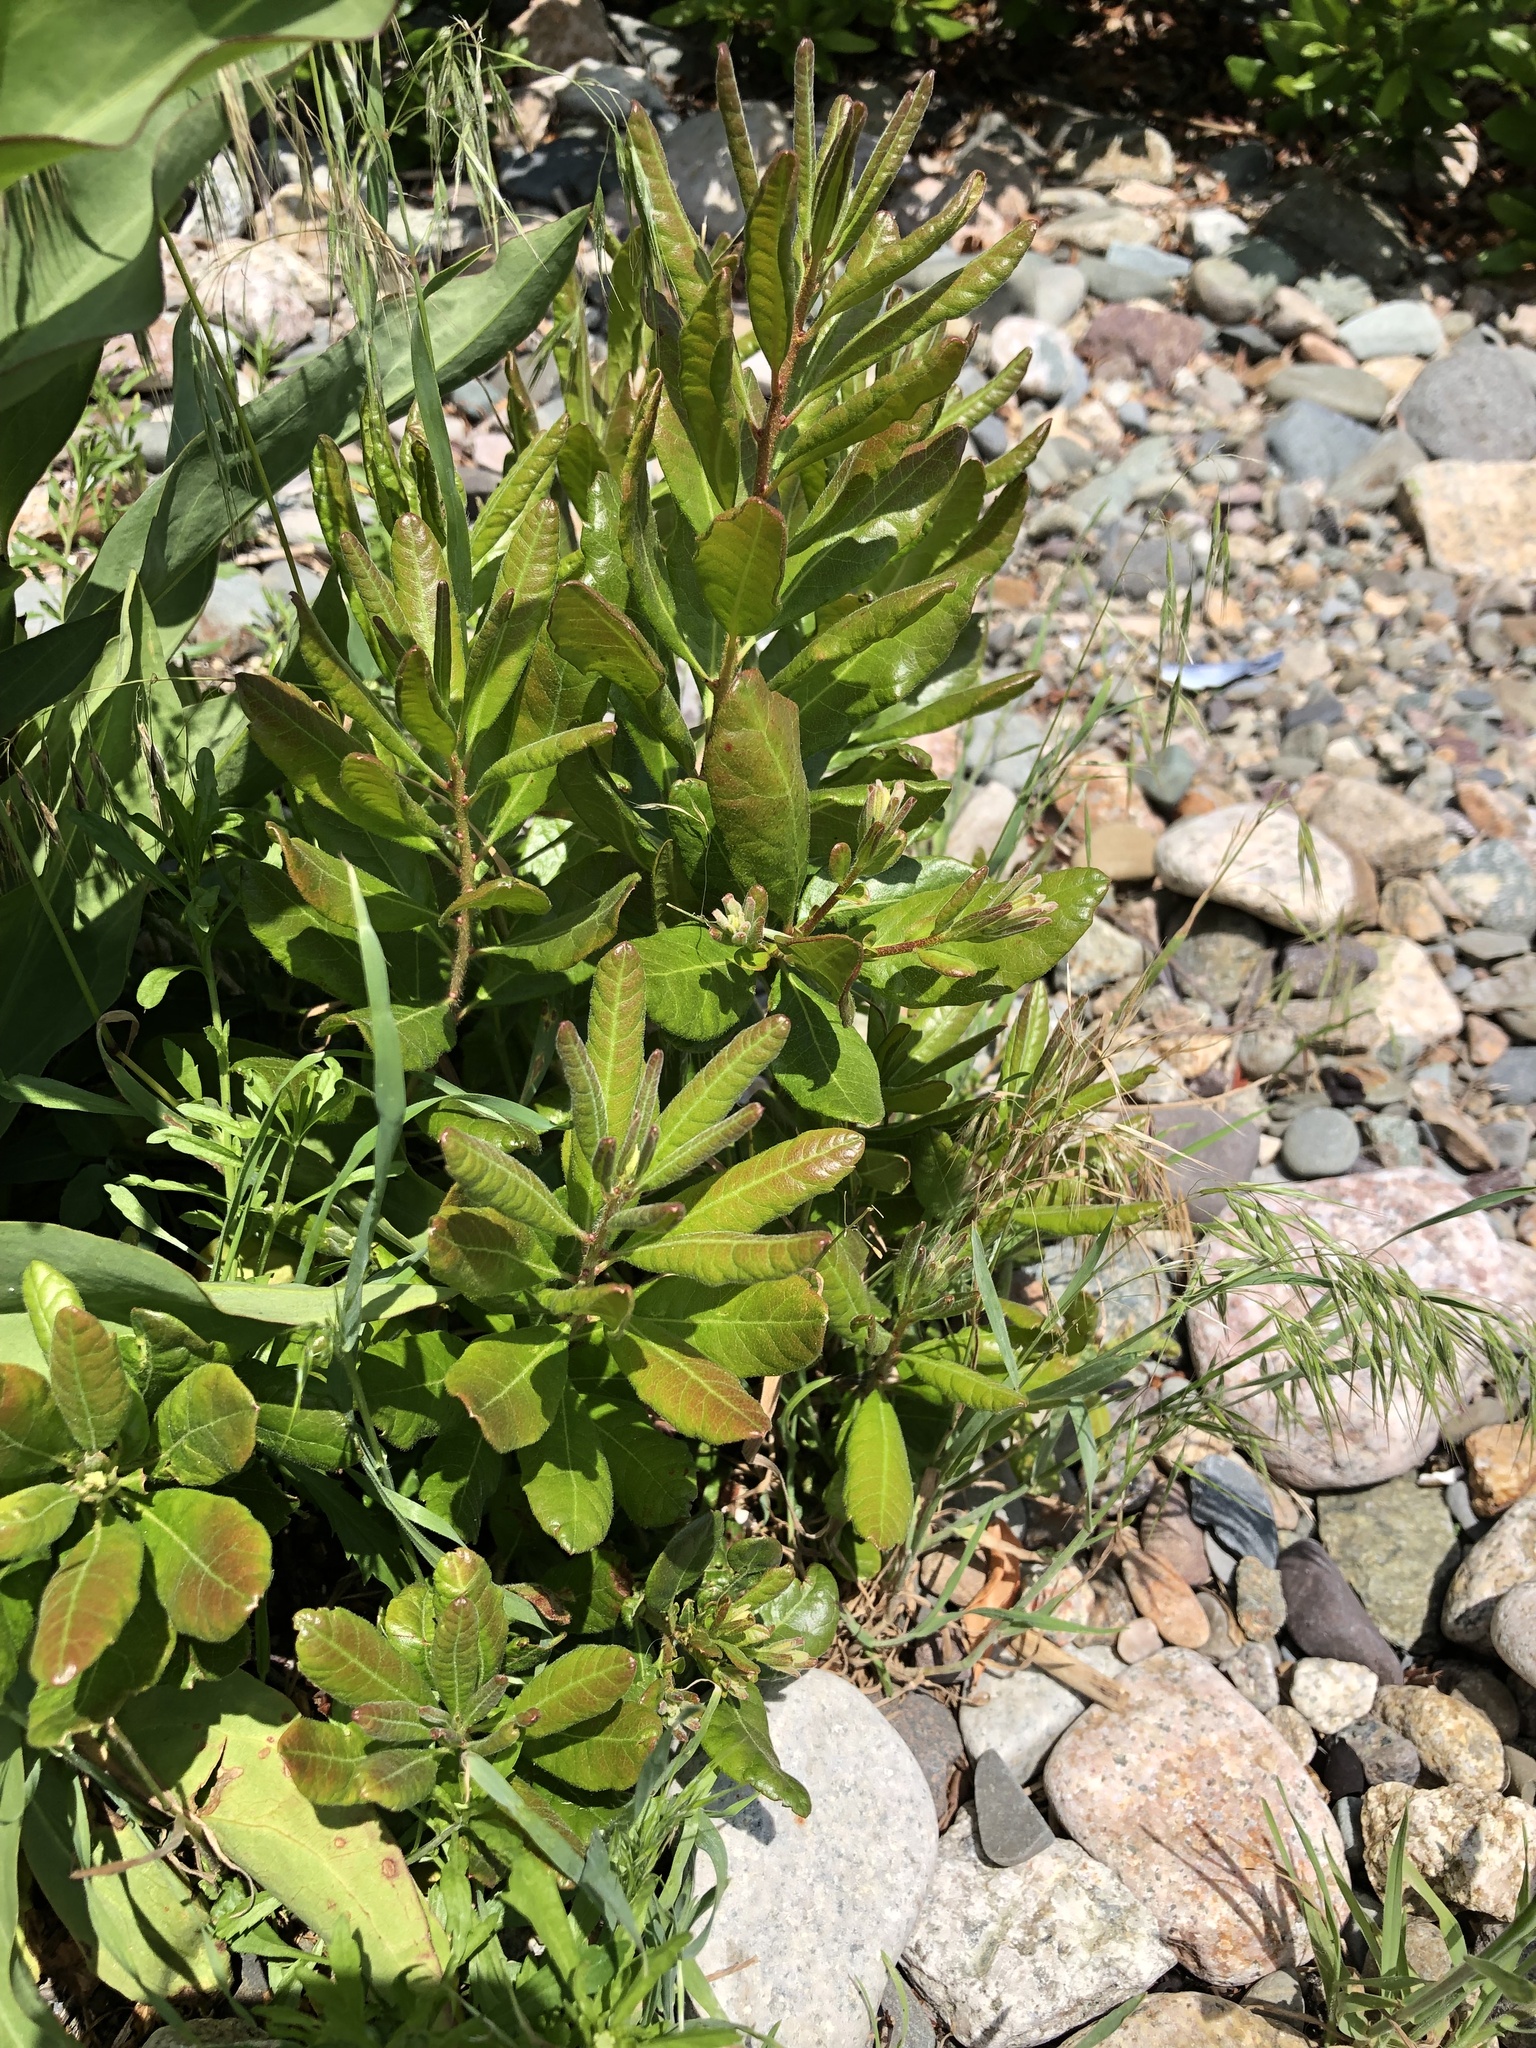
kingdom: Plantae
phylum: Tracheophyta
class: Magnoliopsida
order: Fagales
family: Myricaceae
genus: Morella
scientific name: Morella pensylvanica
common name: Northern bayberry
